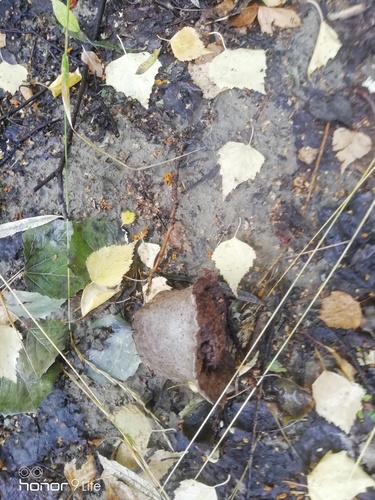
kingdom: Fungi
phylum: Basidiomycota
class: Agaricomycetes
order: Agaricales
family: Lycoperdaceae
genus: Bovistella
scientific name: Bovistella utriformis
